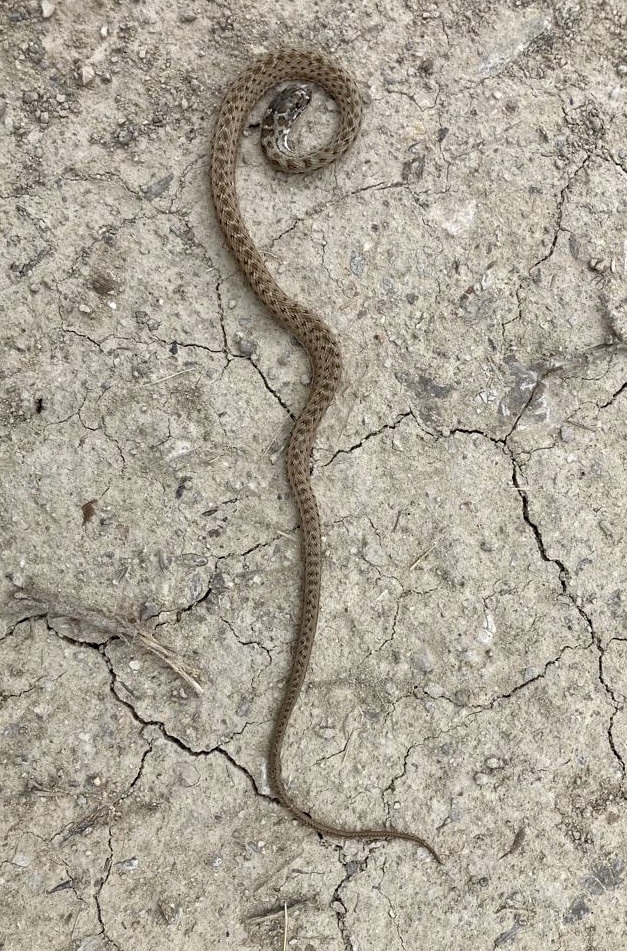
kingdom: Animalia
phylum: Chordata
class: Squamata
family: Psammophiidae
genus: Malpolon
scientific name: Malpolon monspessulanus
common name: Montpellier snake
